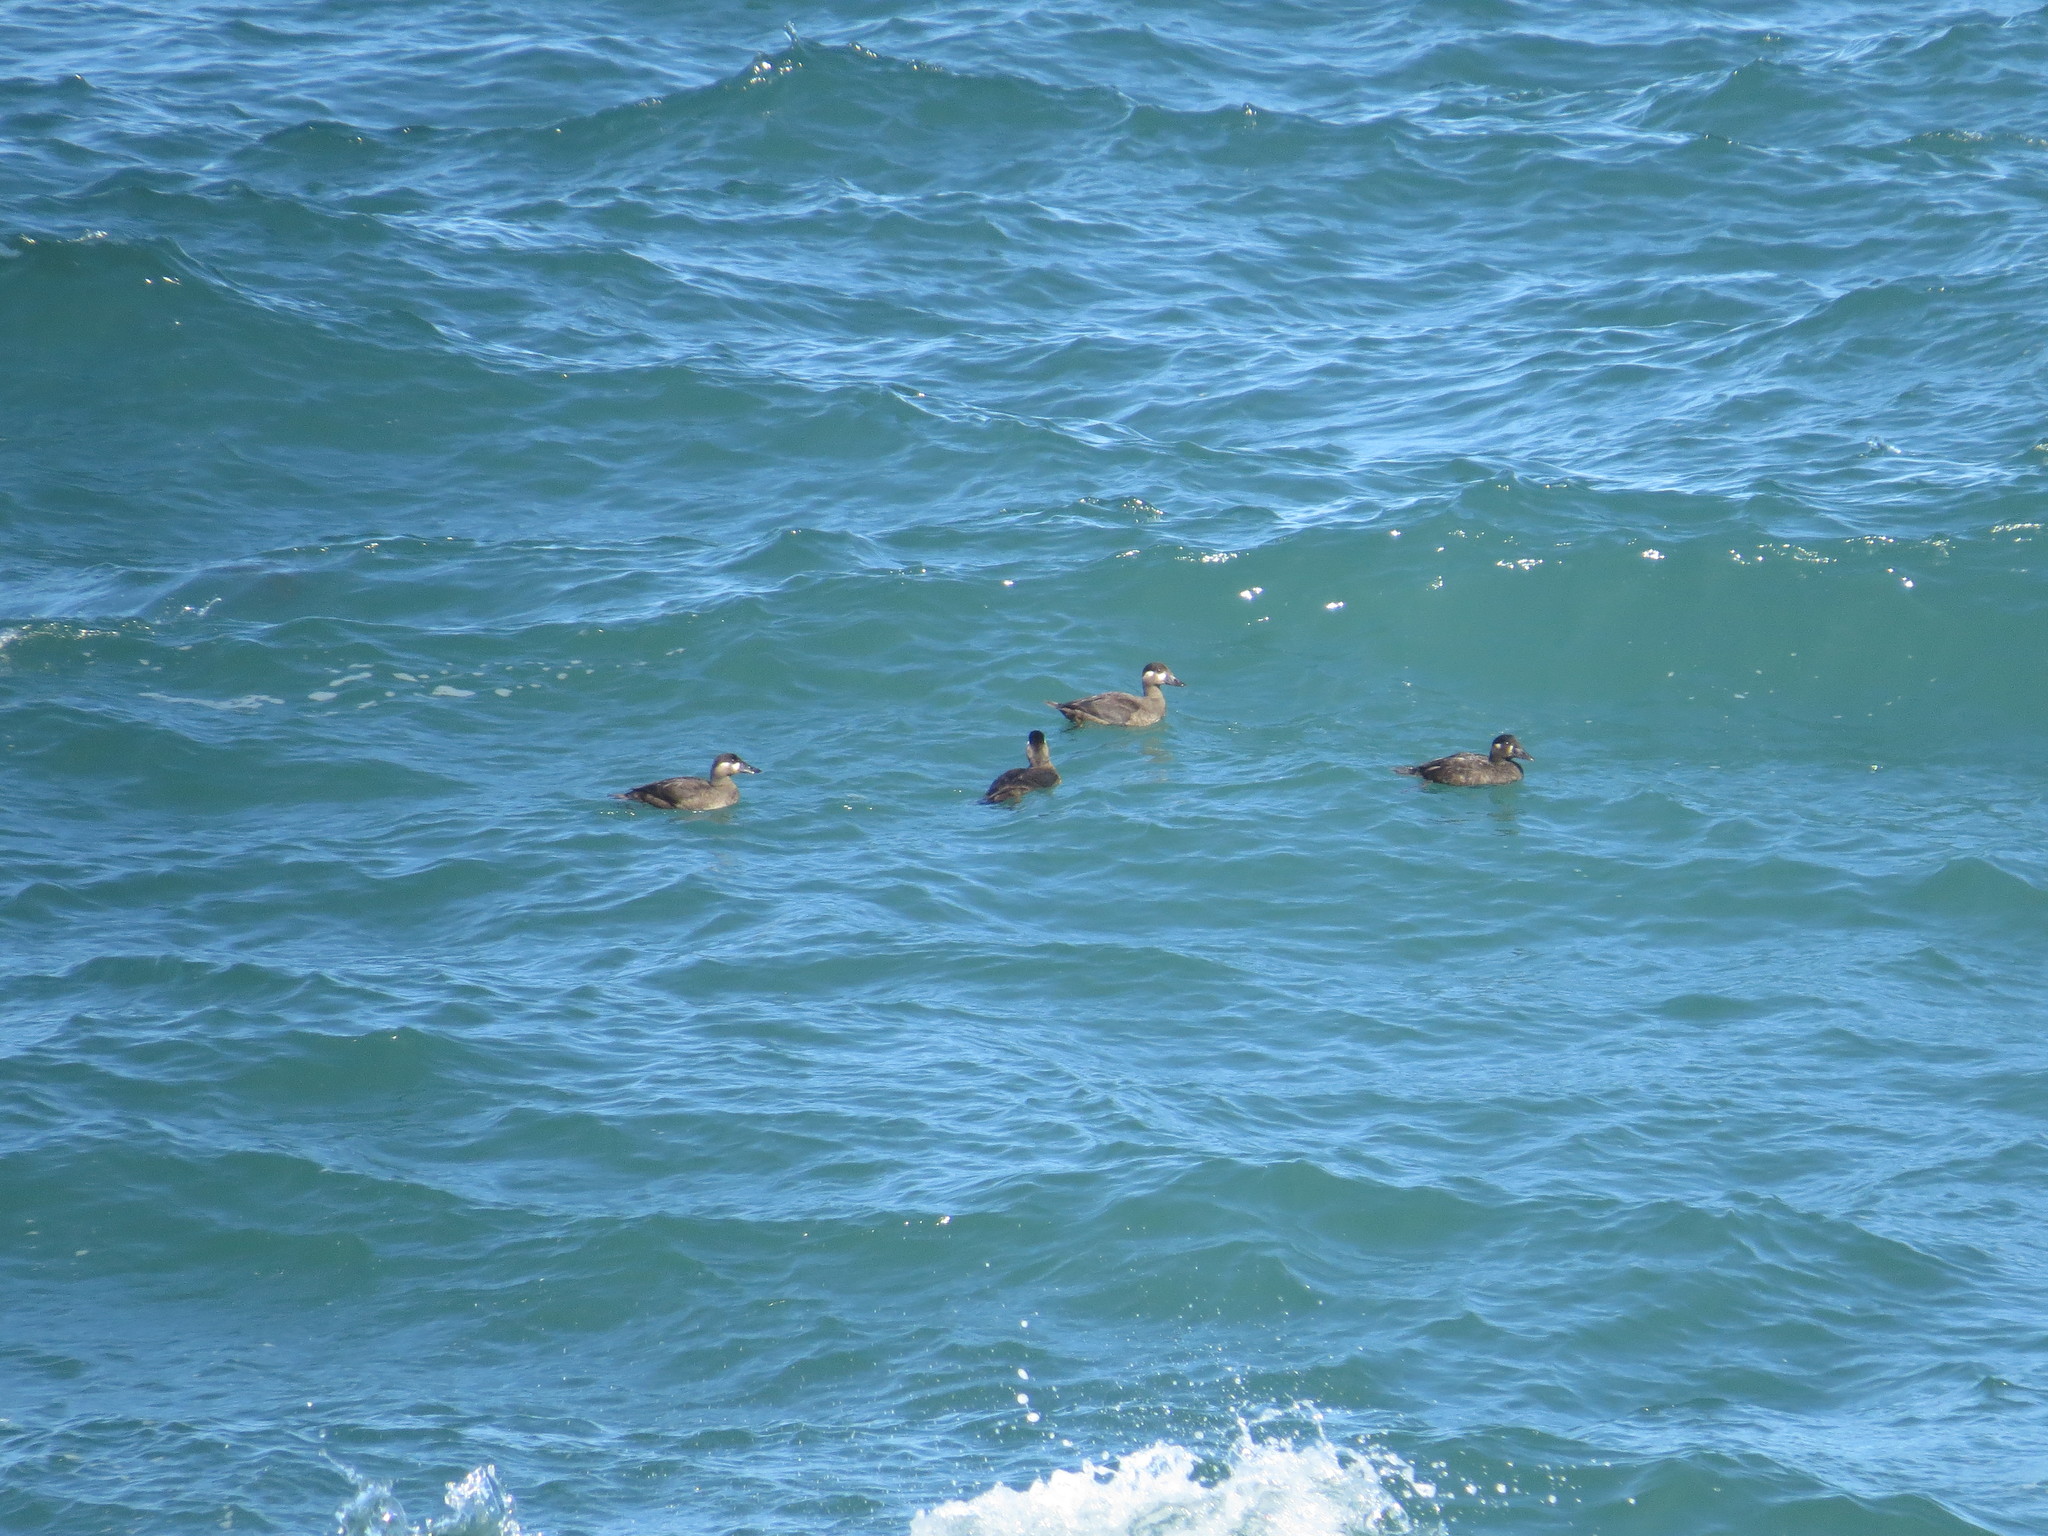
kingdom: Animalia
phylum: Chordata
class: Aves
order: Anseriformes
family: Anatidae
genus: Melanitta
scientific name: Melanitta perspicillata
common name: Surf scoter
